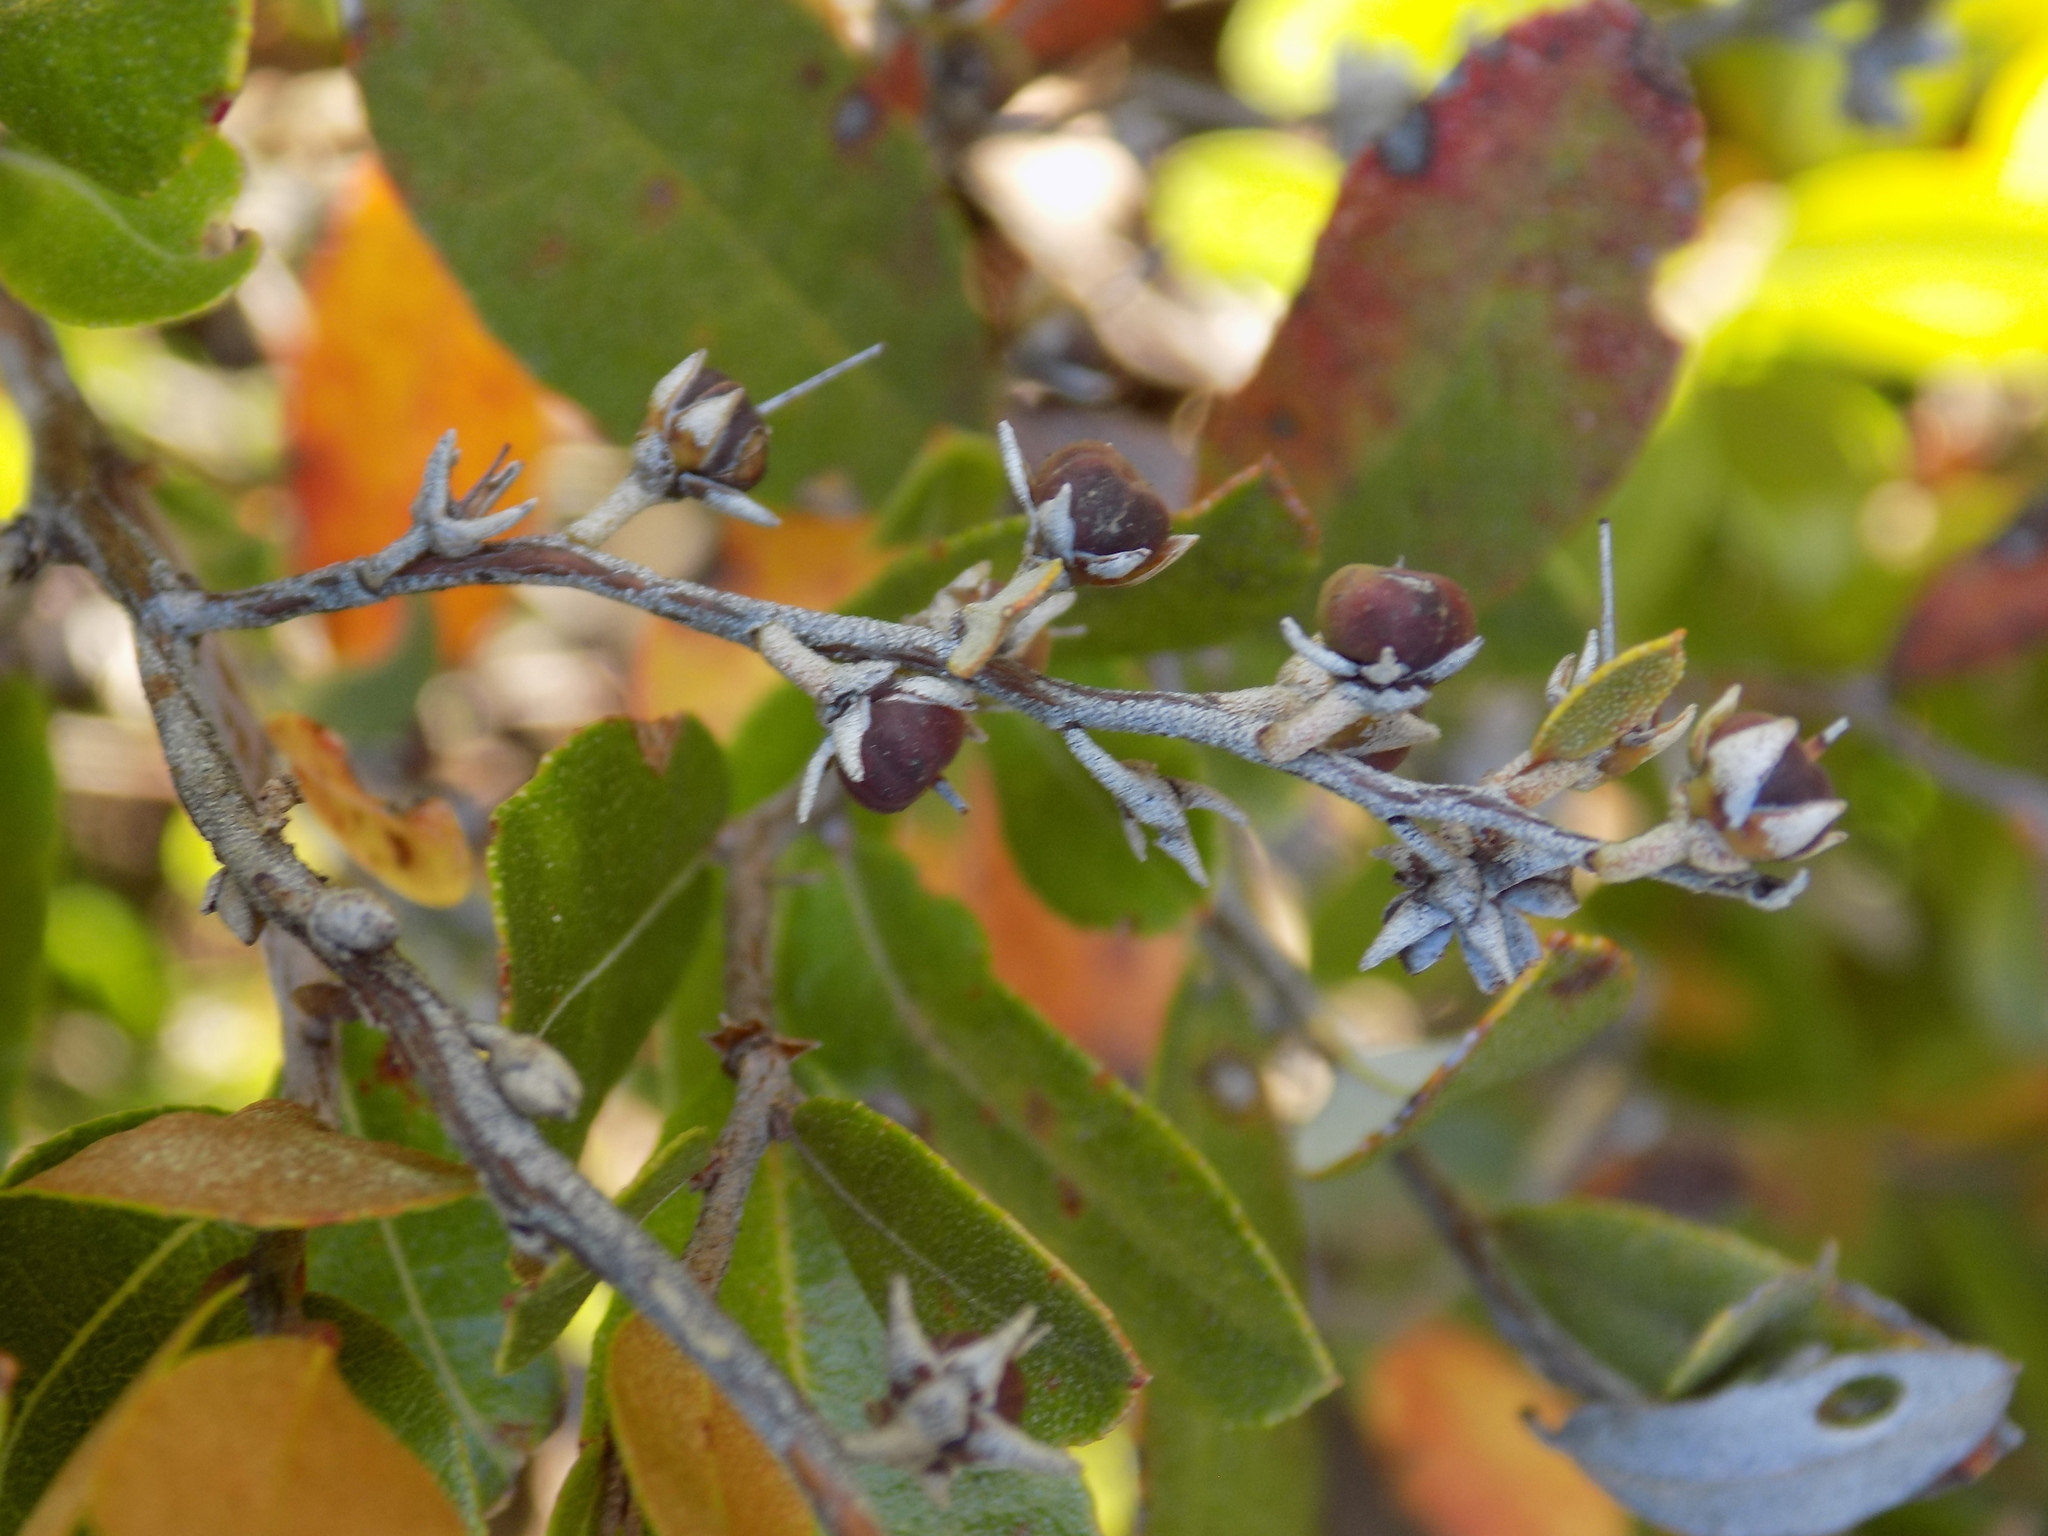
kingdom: Plantae
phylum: Tracheophyta
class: Magnoliopsida
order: Ericales
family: Ericaceae
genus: Chamaedaphne
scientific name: Chamaedaphne calyculata
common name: Leatherleaf
